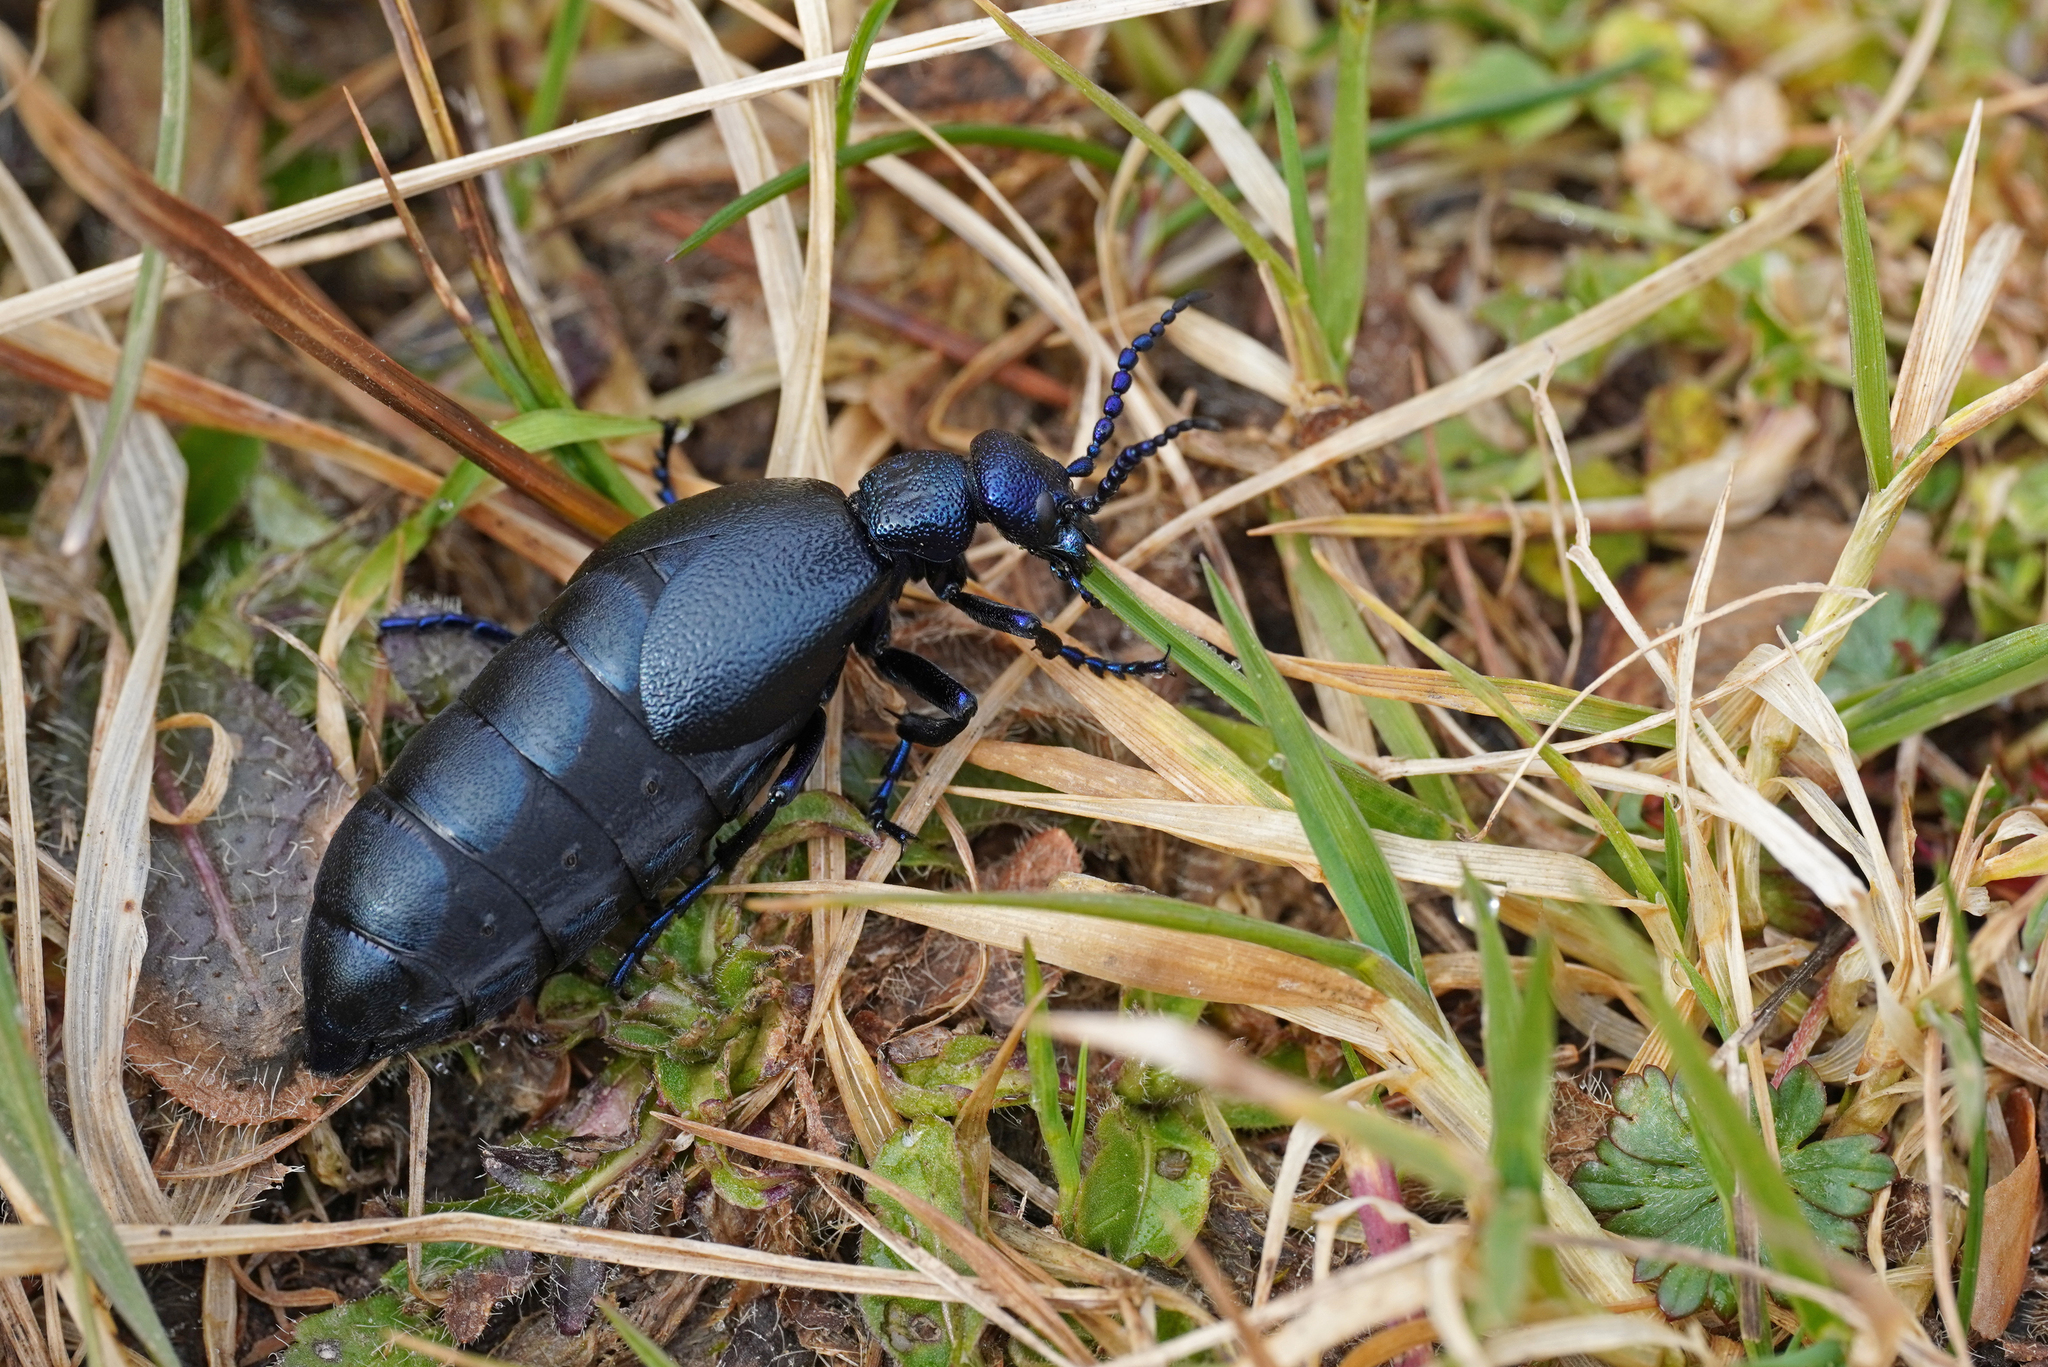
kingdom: Animalia
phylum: Arthropoda
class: Insecta
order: Coleoptera
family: Meloidae
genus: Meloe
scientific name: Meloe proscarabaeus
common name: Black oil-beetle
